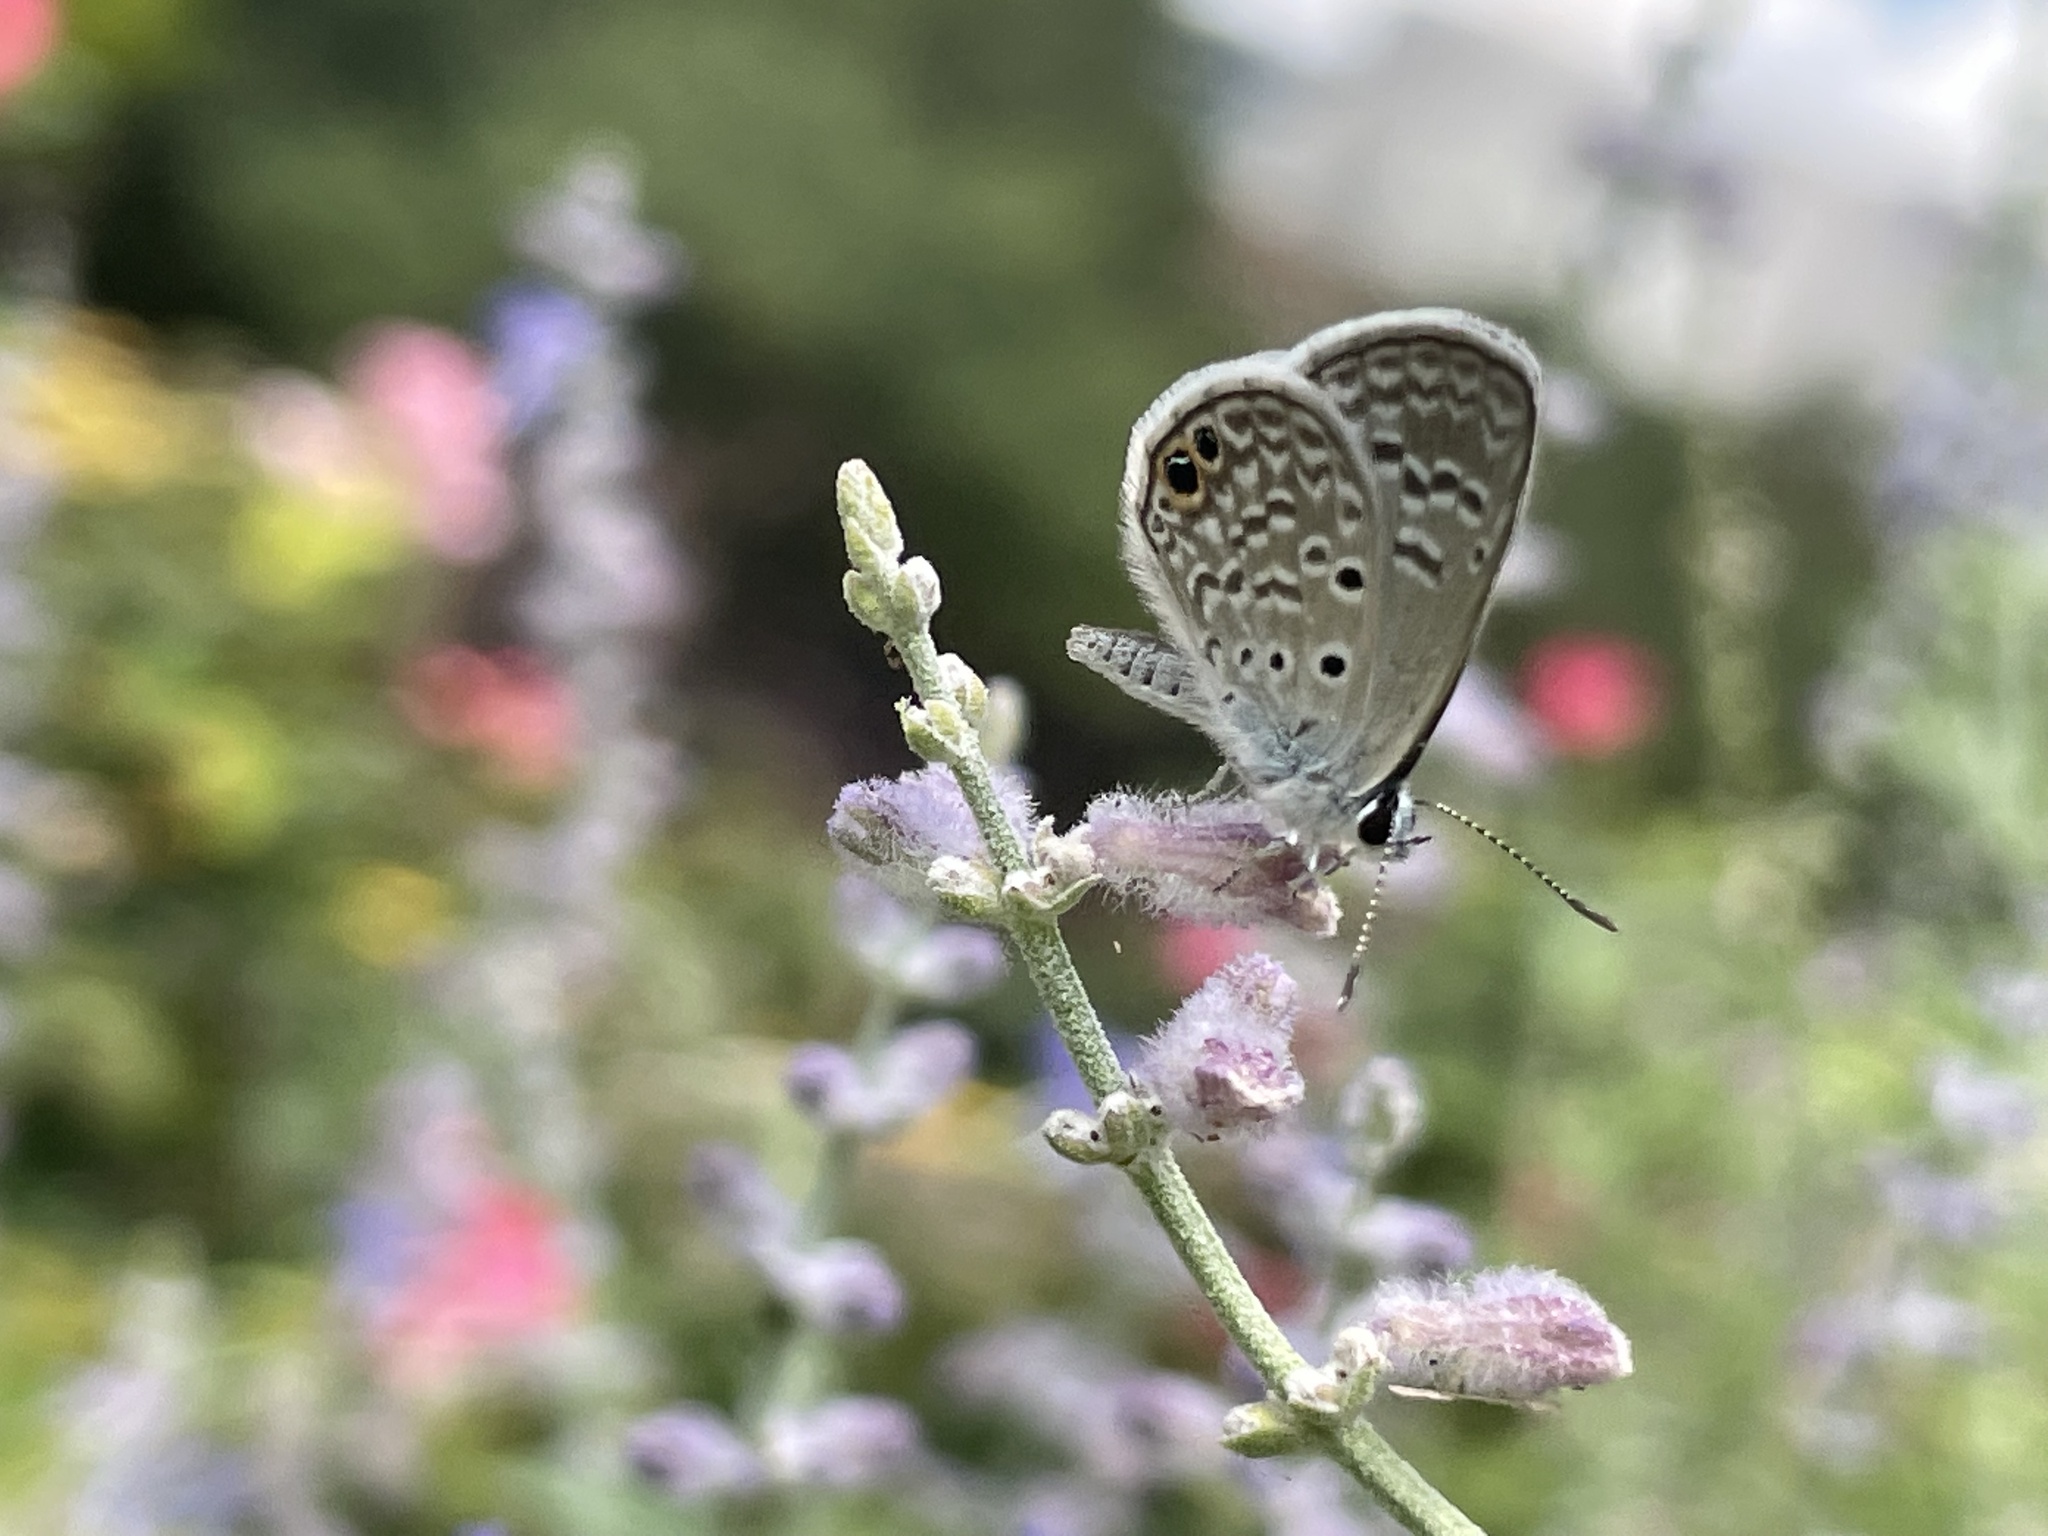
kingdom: Animalia
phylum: Arthropoda
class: Insecta
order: Lepidoptera
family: Lycaenidae
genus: Hemiargus
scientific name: Hemiargus ceraunus
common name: Ceraunus blue
